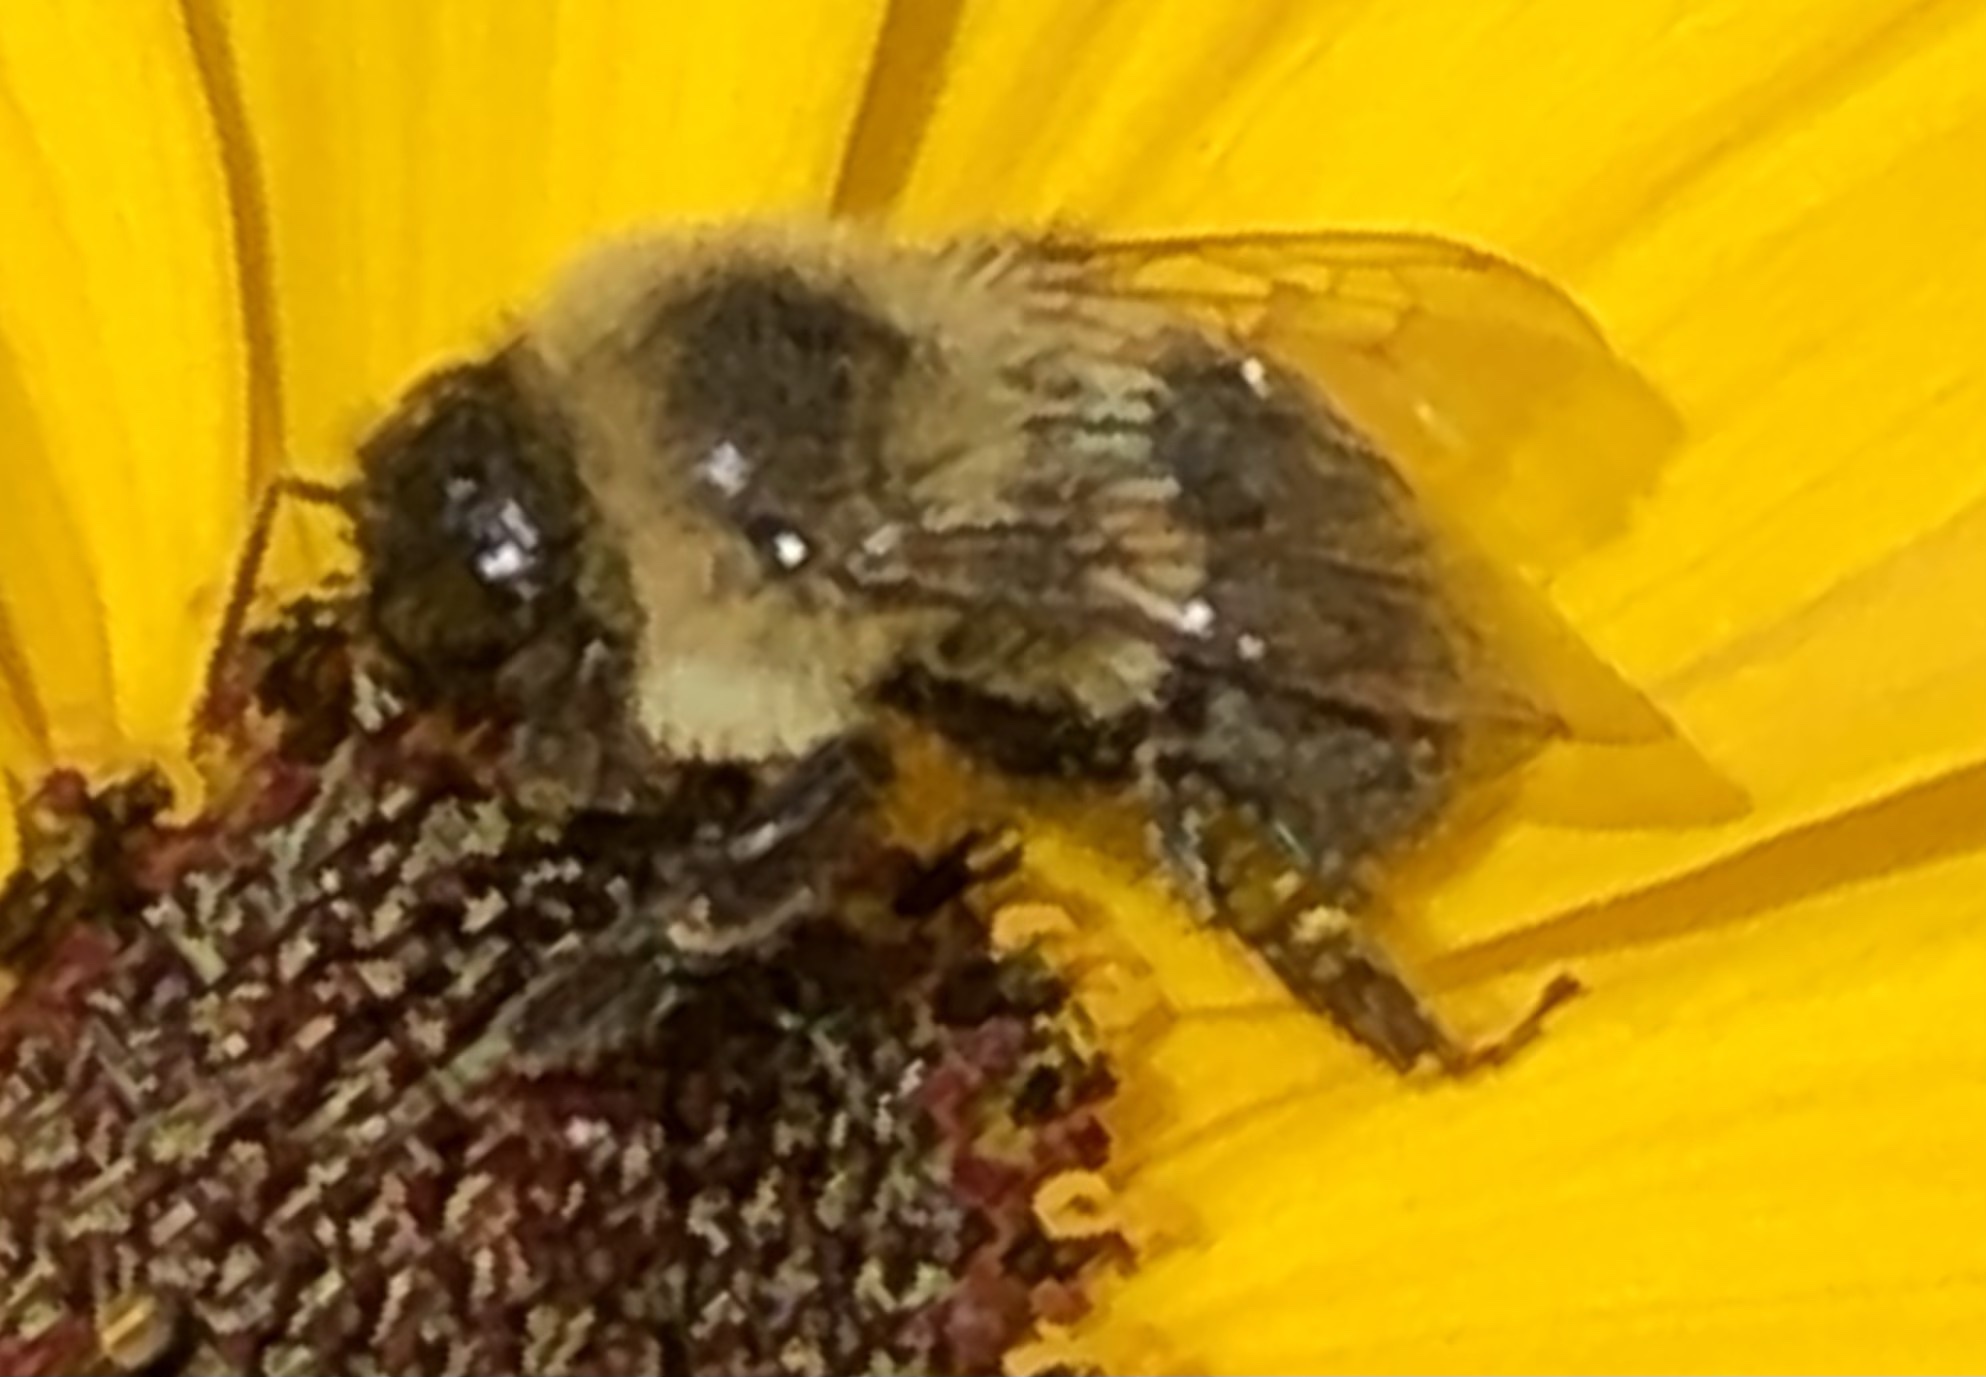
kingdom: Animalia
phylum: Arthropoda
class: Insecta
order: Hymenoptera
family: Apidae
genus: Bombus
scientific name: Bombus impatiens
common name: Common eastern bumble bee
